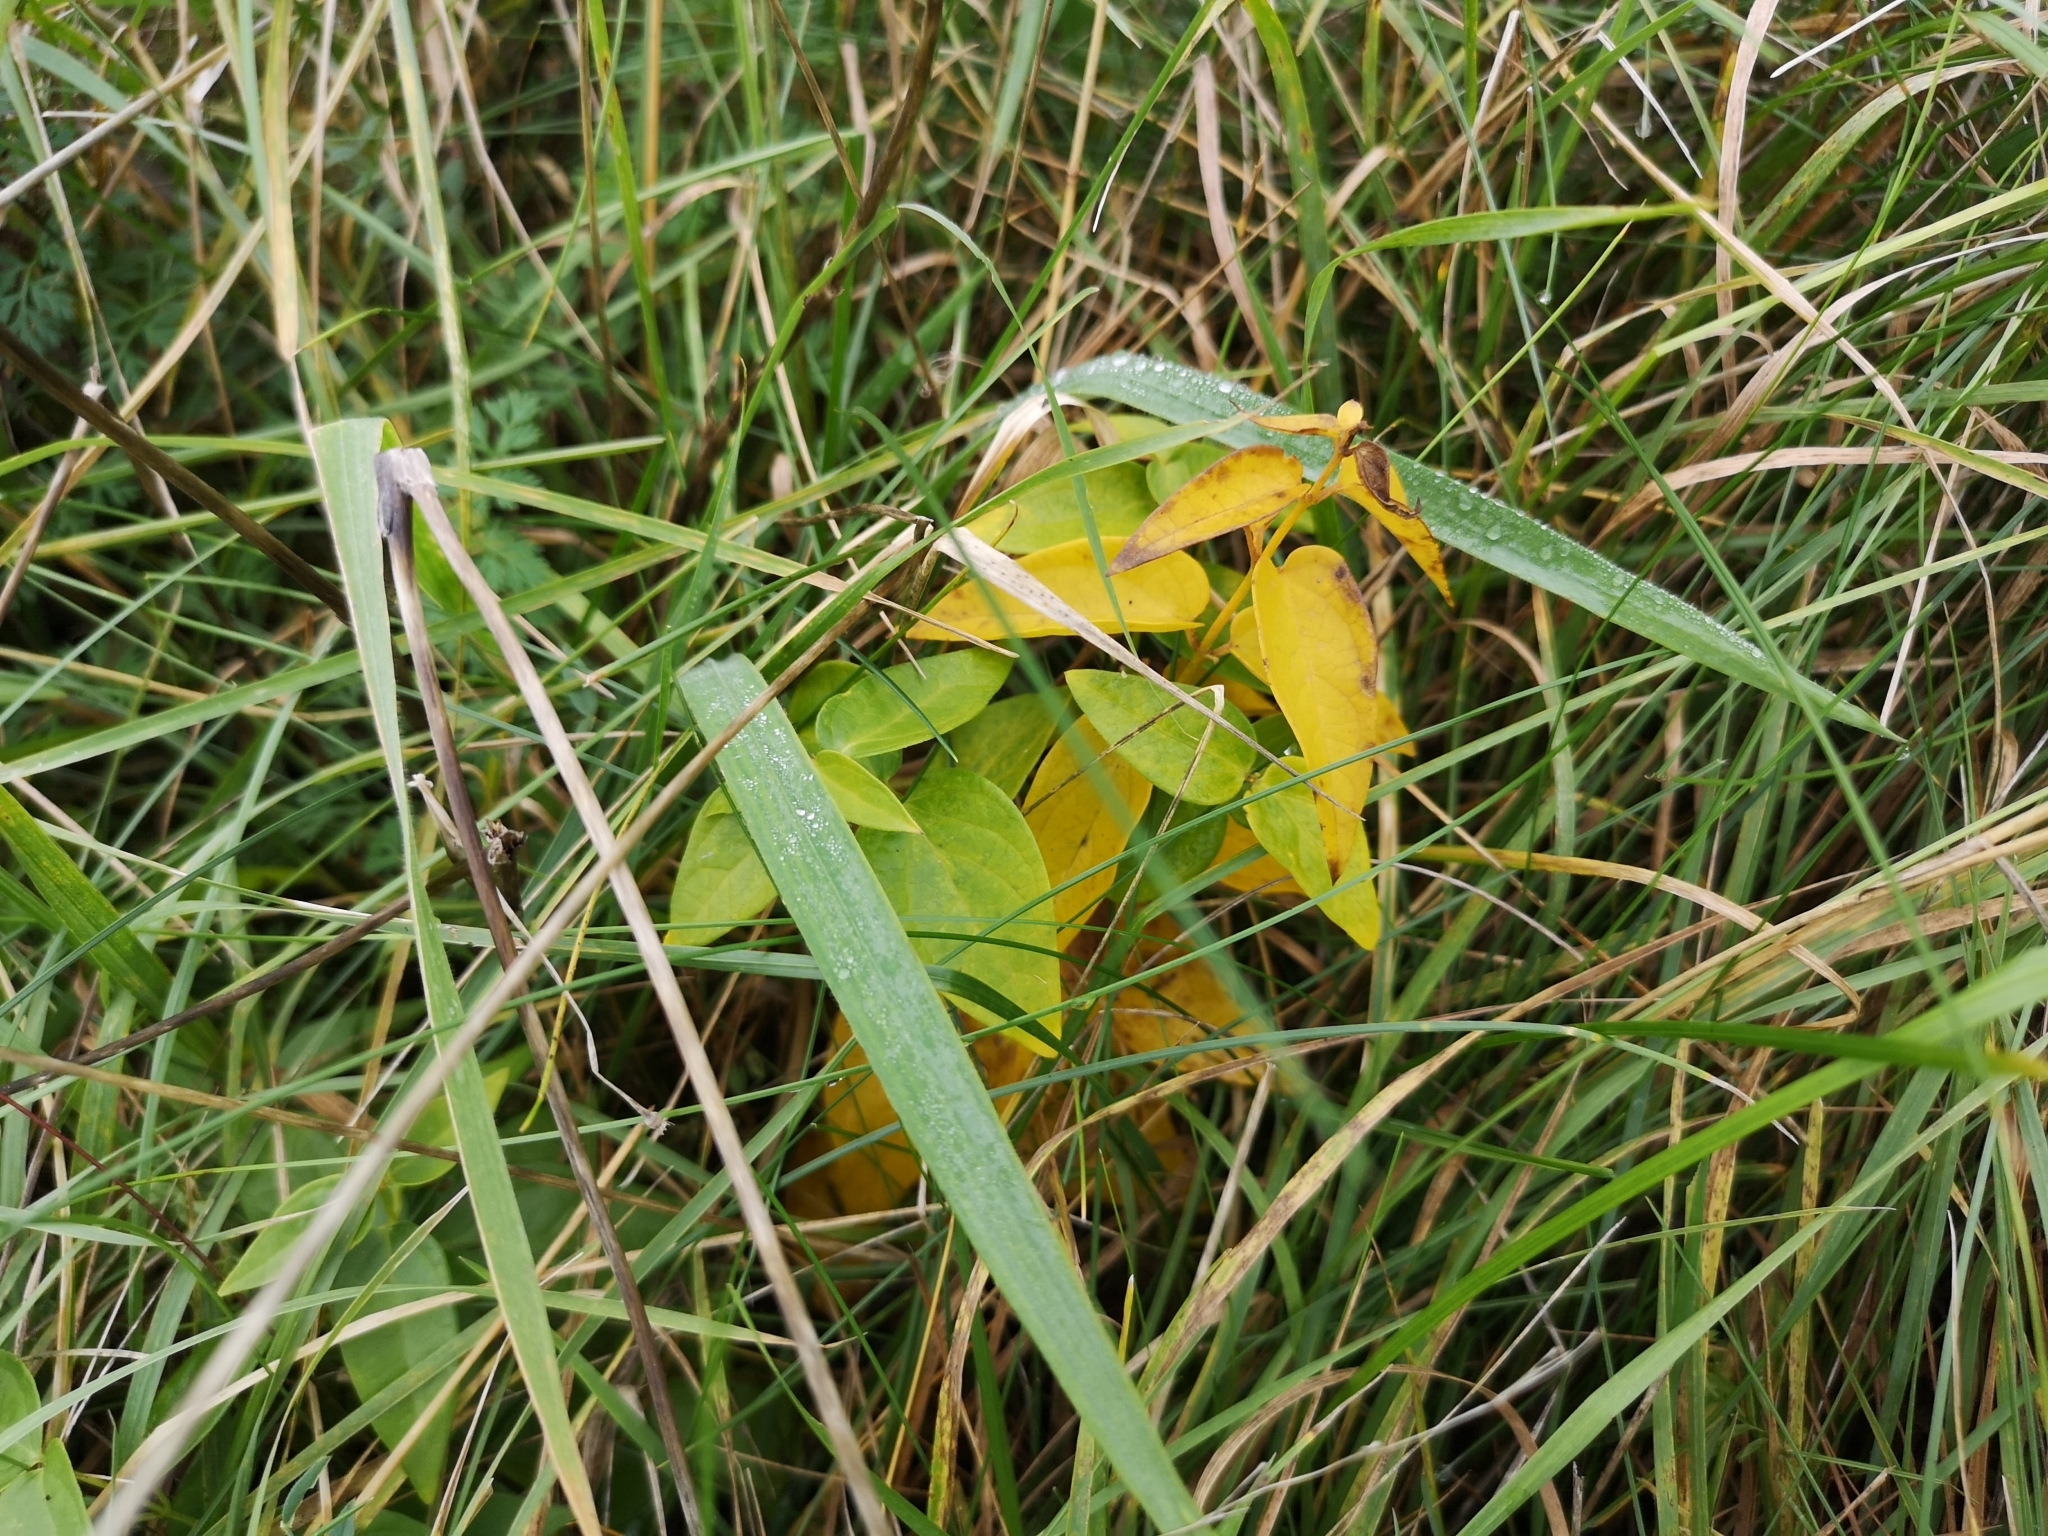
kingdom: Plantae
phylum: Tracheophyta
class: Magnoliopsida
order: Gentianales
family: Apocynaceae
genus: Vincetoxicum
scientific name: Vincetoxicum hirundinaria
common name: White swallowwort
